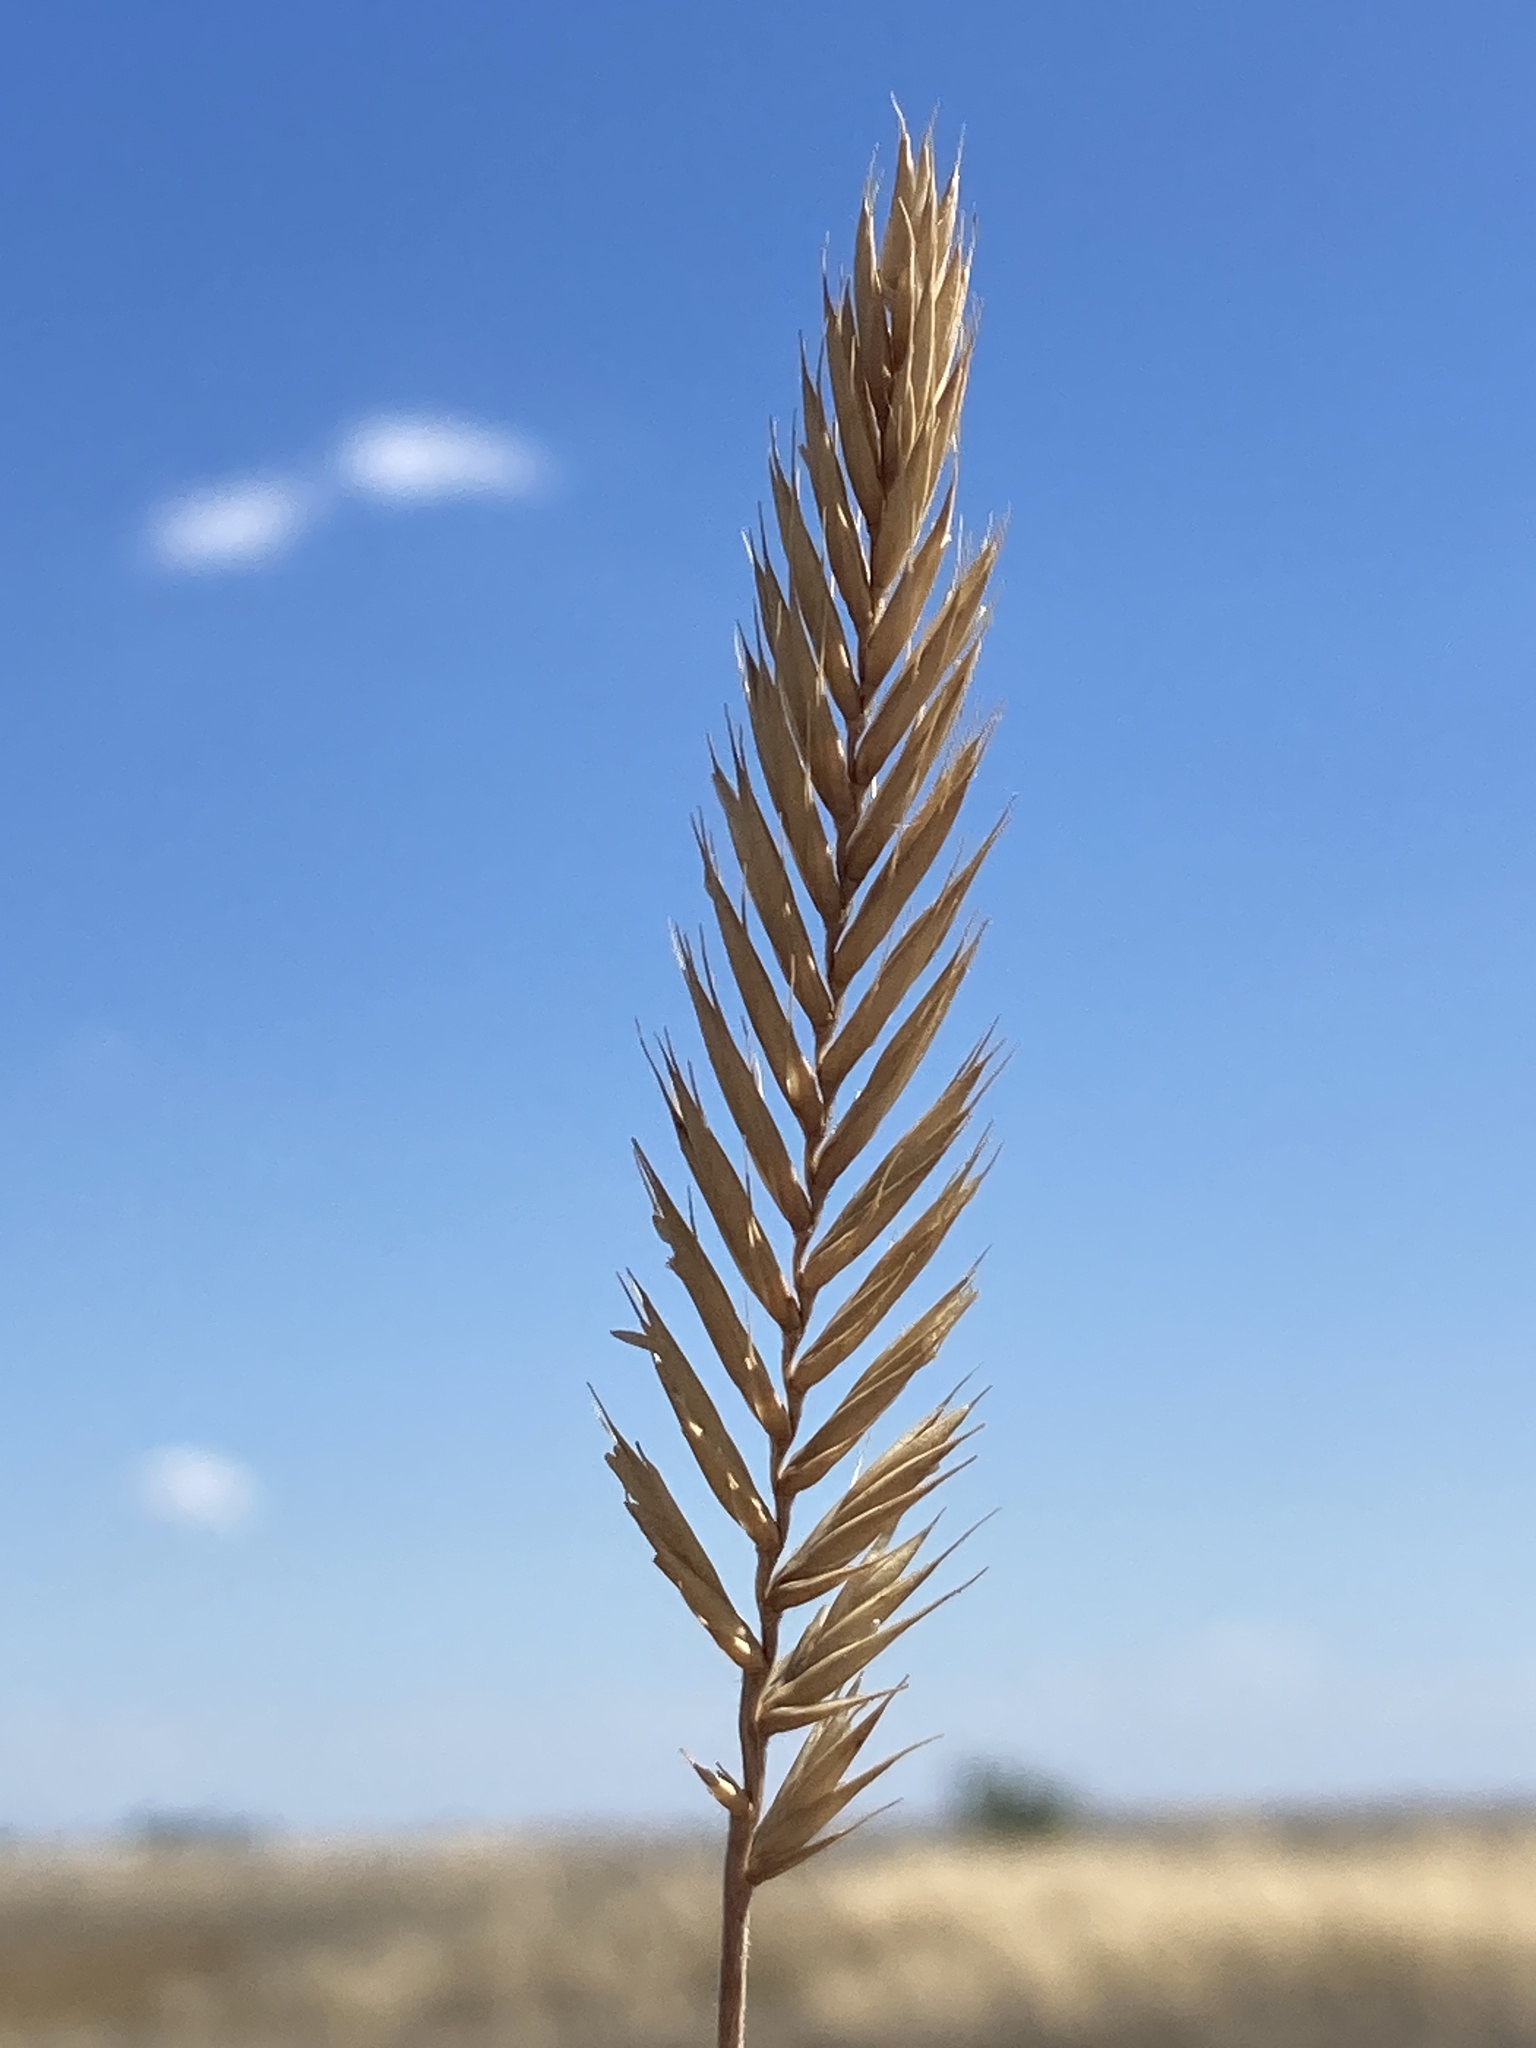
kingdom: Plantae
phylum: Tracheophyta
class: Liliopsida
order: Poales
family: Poaceae
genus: Agropyron
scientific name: Agropyron cristatum
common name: Crested wheatgrass
